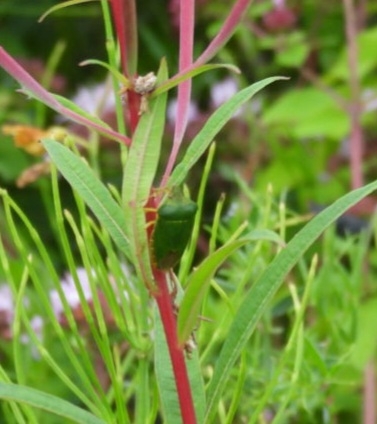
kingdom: Animalia
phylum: Arthropoda
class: Insecta
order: Hemiptera
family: Pentatomidae
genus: Palomena
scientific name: Palomena prasina
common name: Green shieldbug
